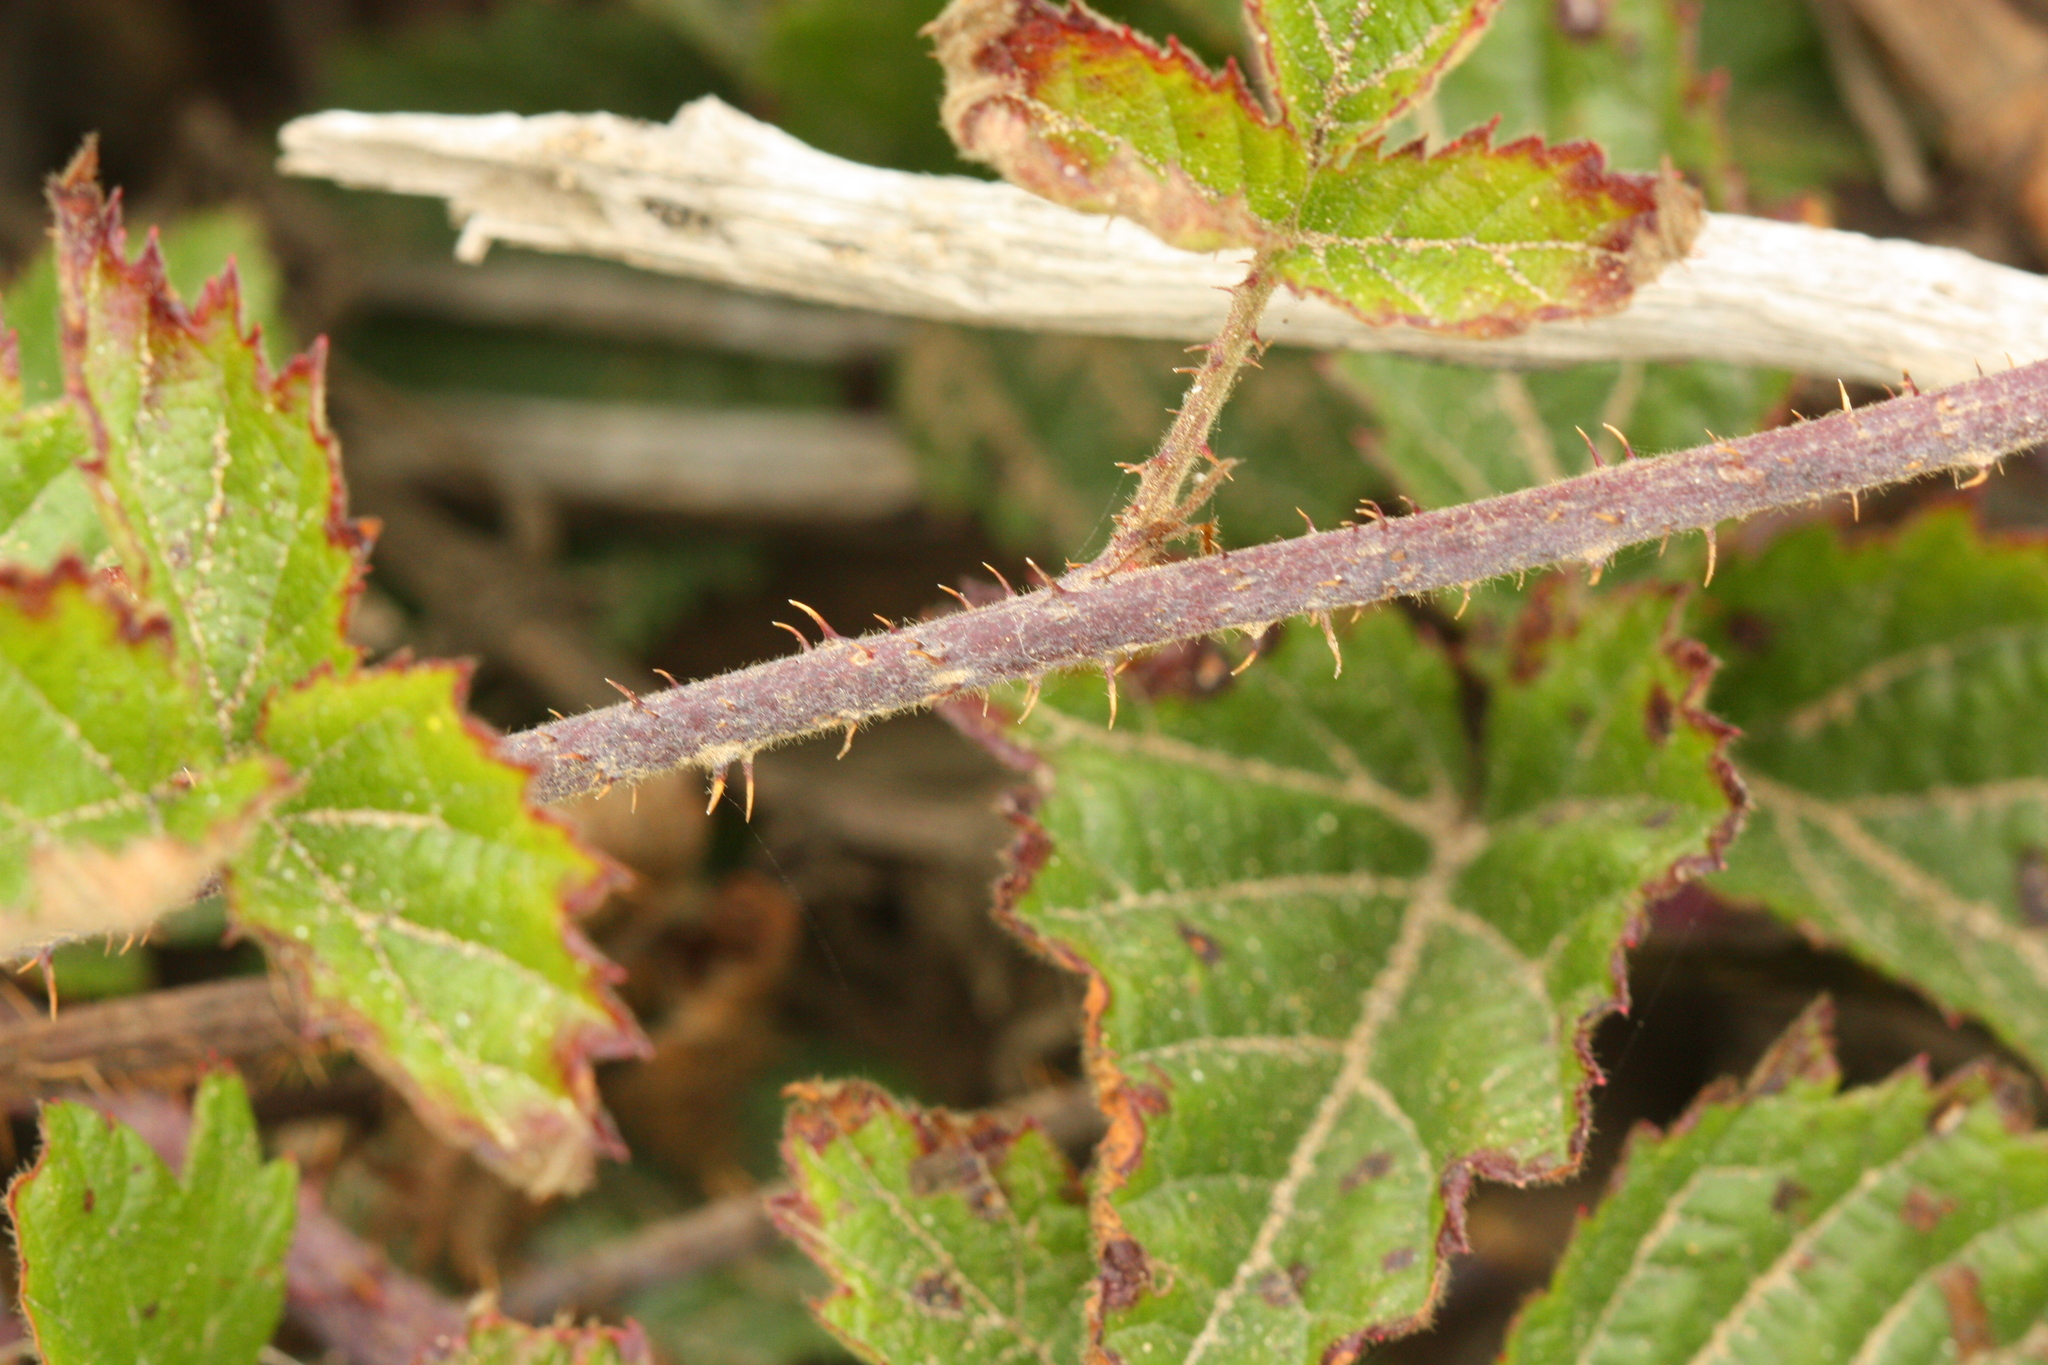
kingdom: Plantae
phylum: Tracheophyta
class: Magnoliopsida
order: Rosales
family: Rosaceae
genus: Rubus
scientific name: Rubus ursinus
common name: Pacific blackberry
